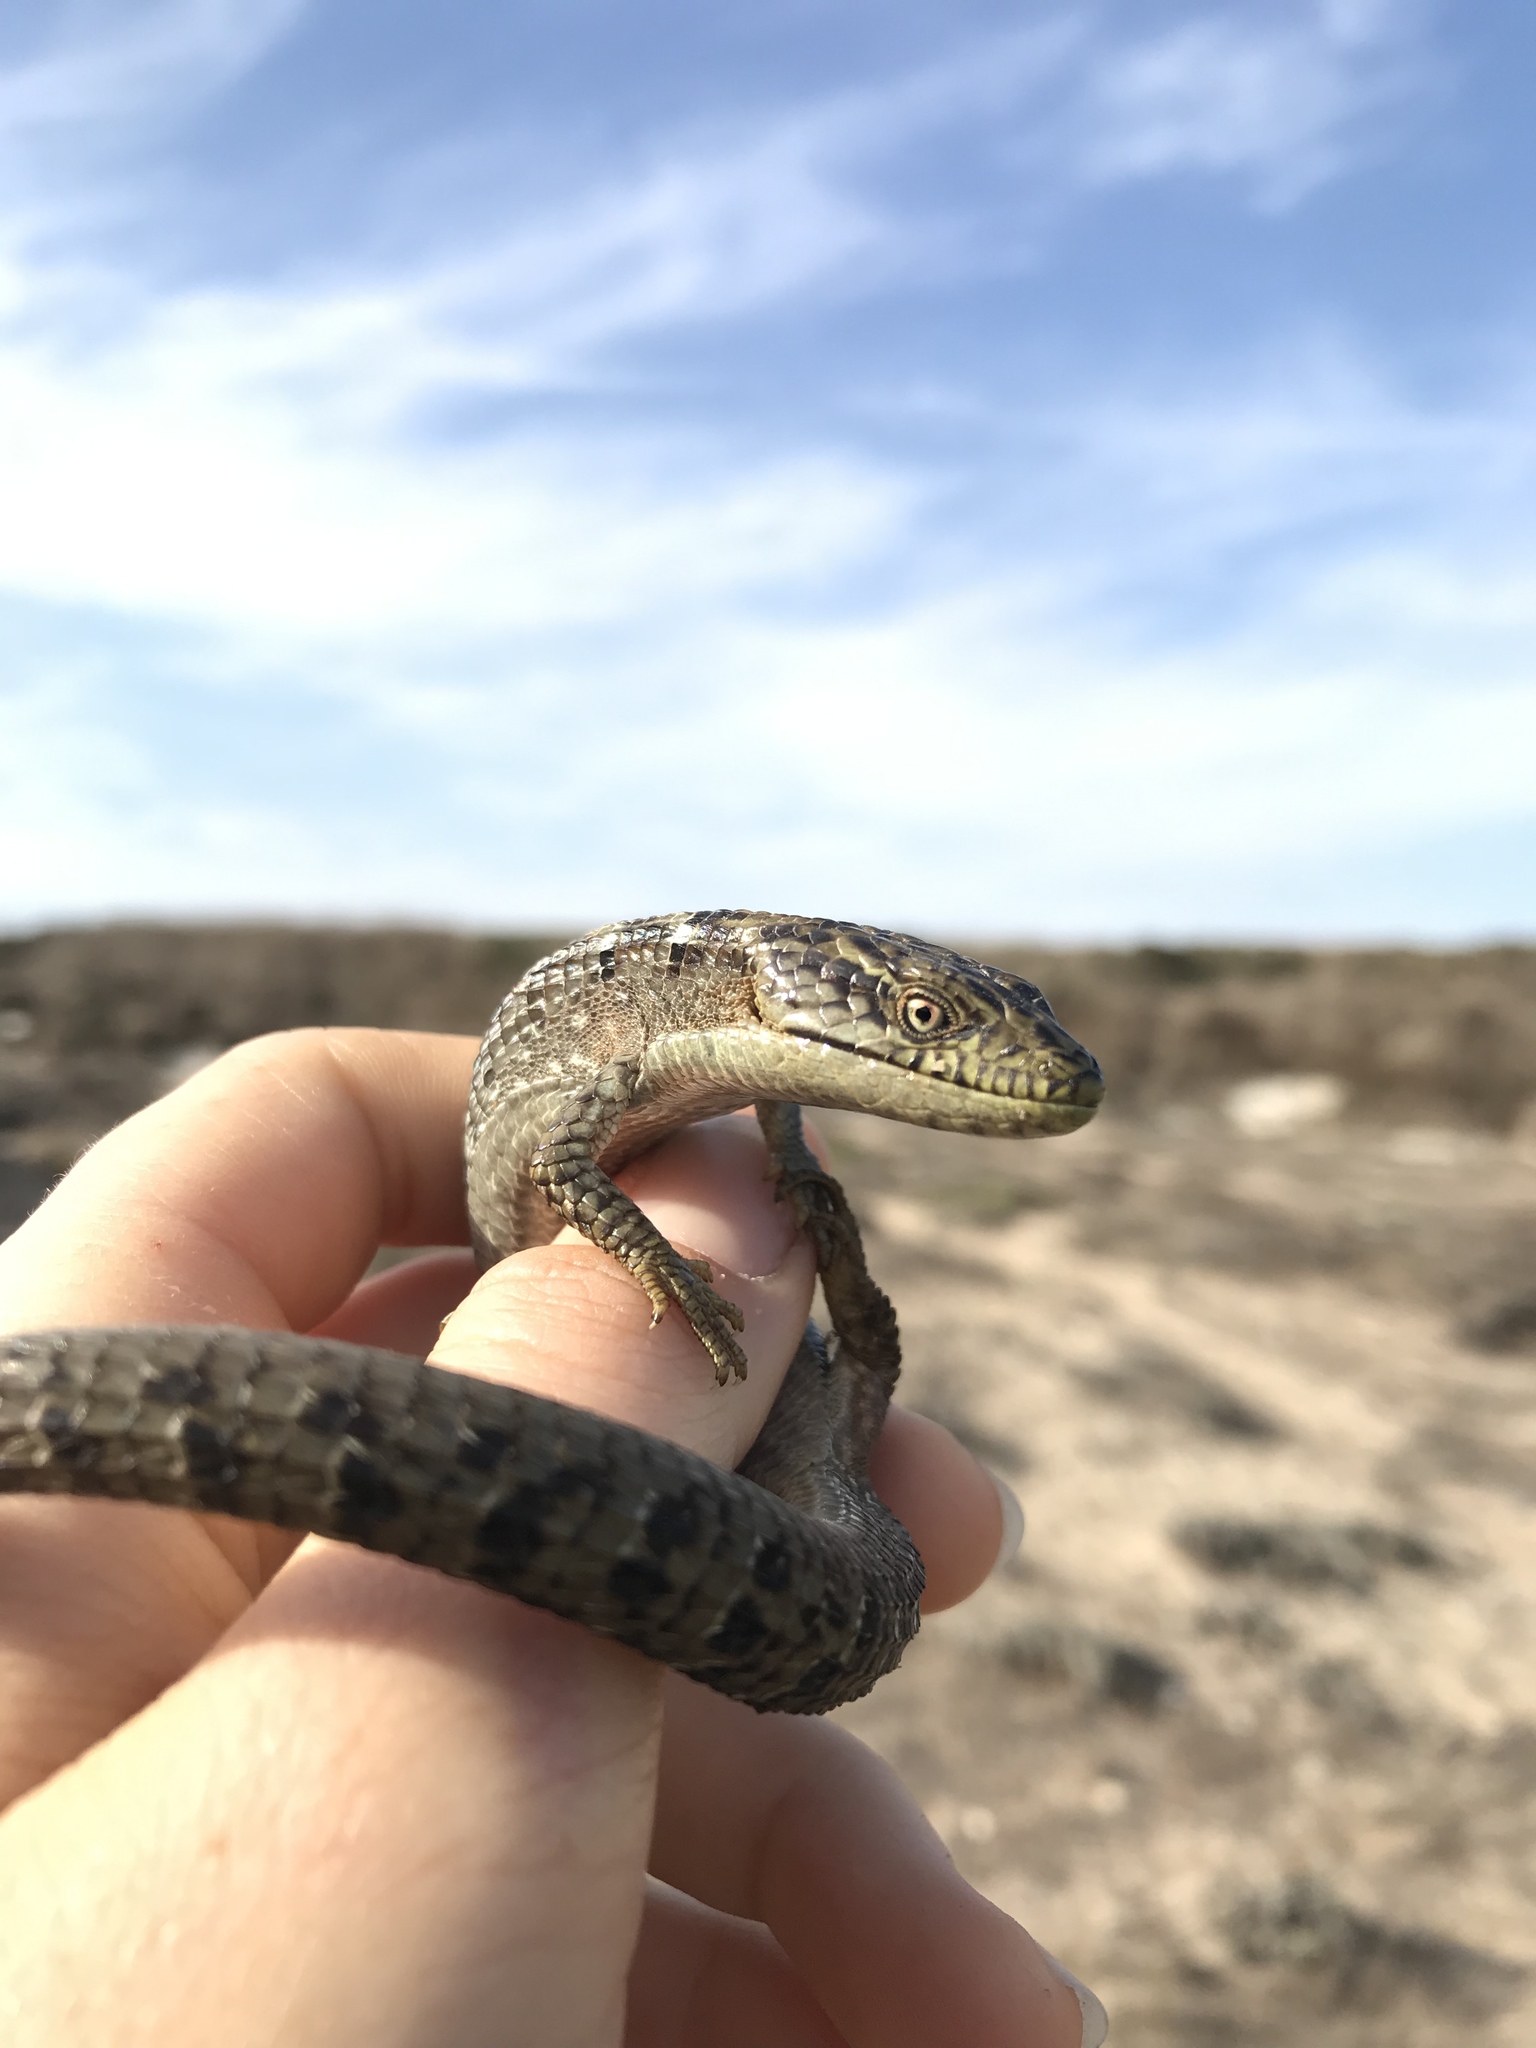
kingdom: Animalia
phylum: Chordata
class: Squamata
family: Anguidae
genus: Elgaria
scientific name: Elgaria multicarinata
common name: Southern alligator lizard
